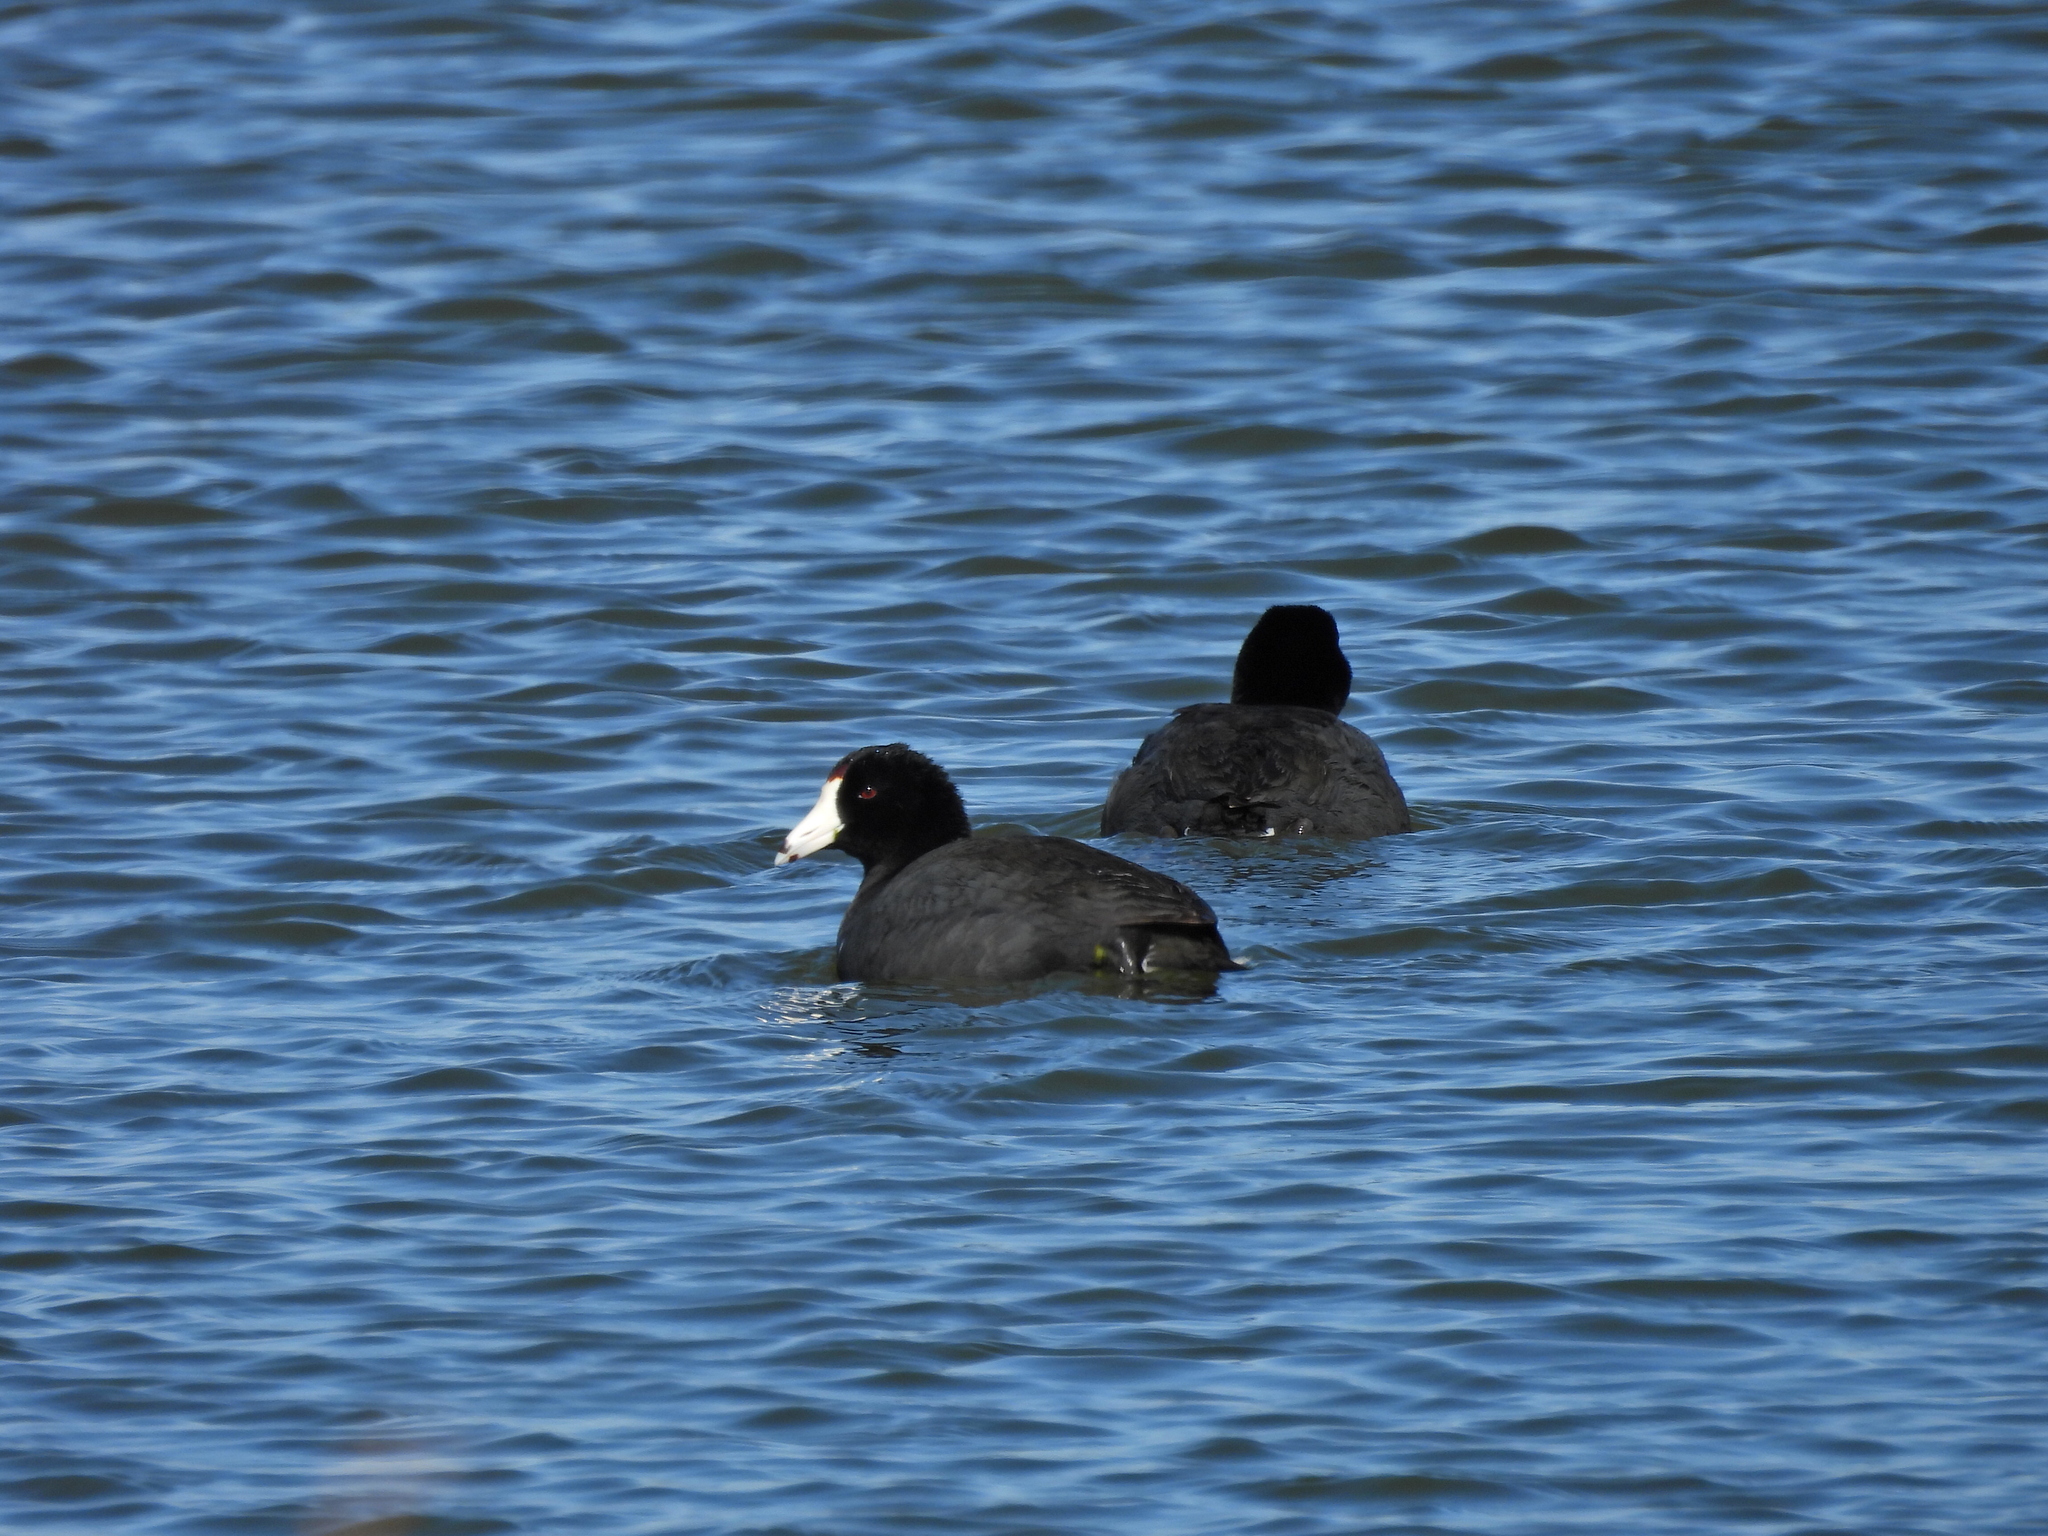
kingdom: Animalia
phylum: Chordata
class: Aves
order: Gruiformes
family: Rallidae
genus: Fulica
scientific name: Fulica americana
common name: American coot
